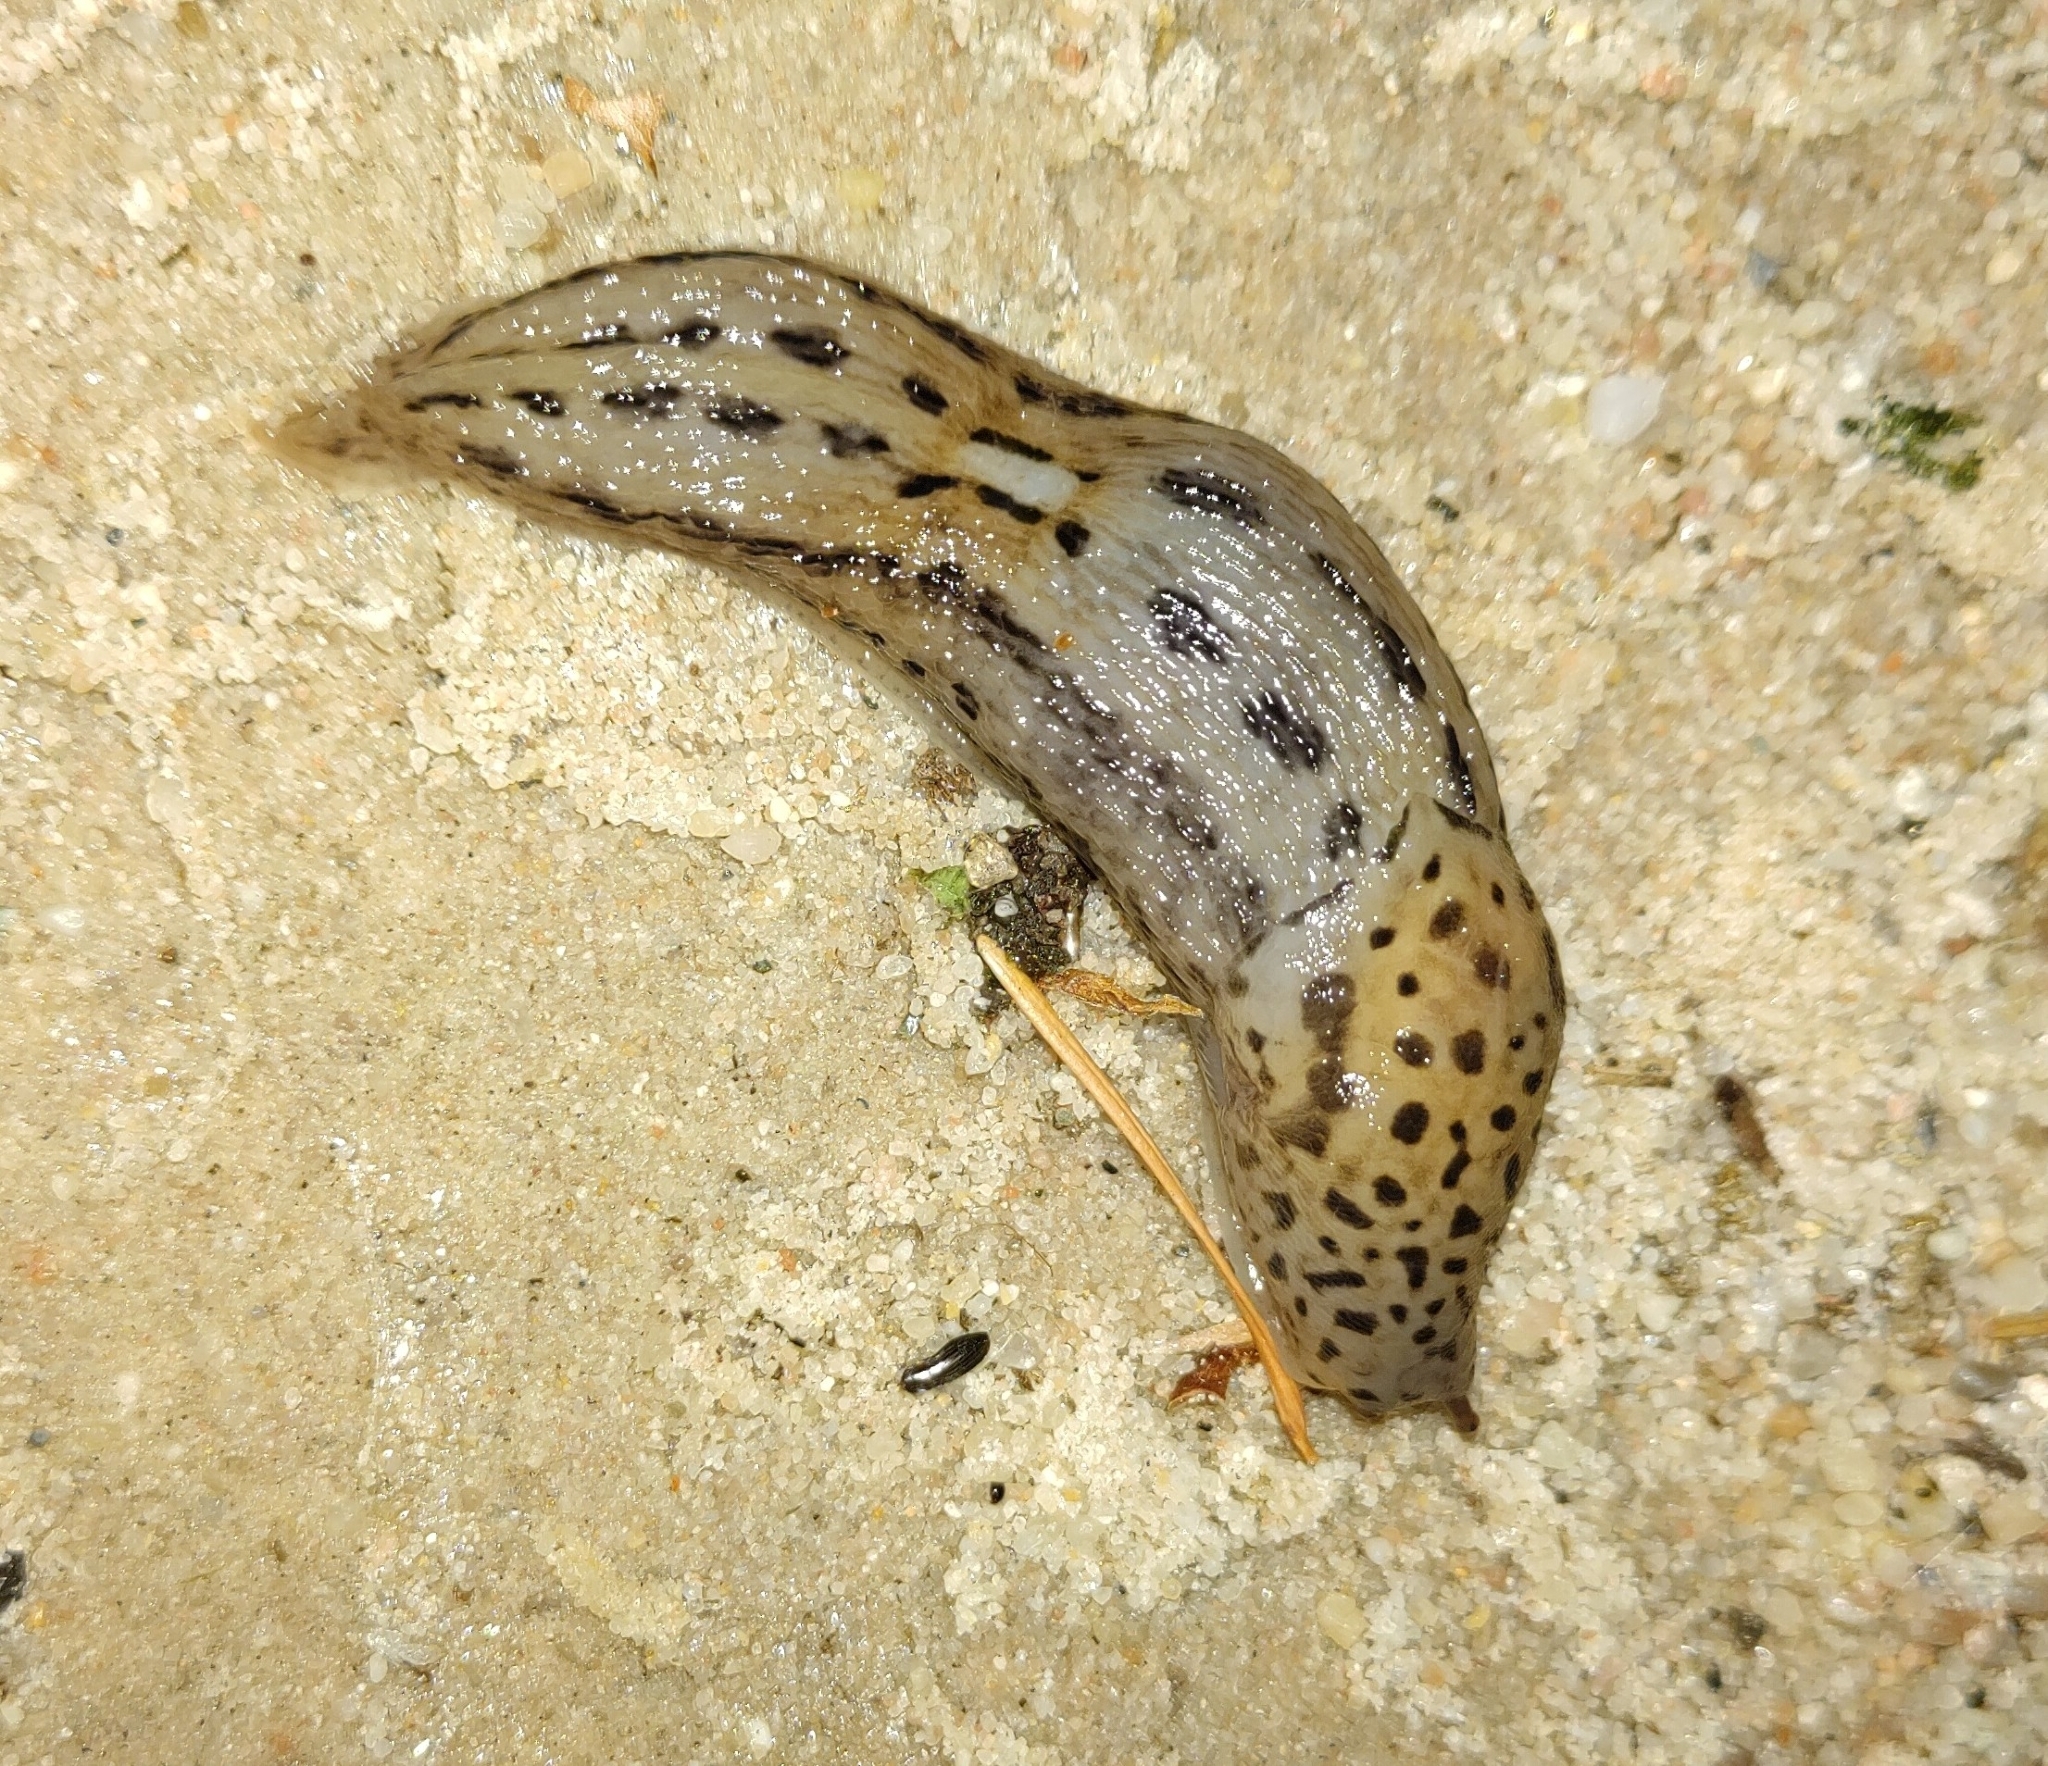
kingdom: Animalia
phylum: Mollusca
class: Gastropoda
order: Stylommatophora
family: Limacidae
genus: Limax
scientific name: Limax maximus
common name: Great grey slug
